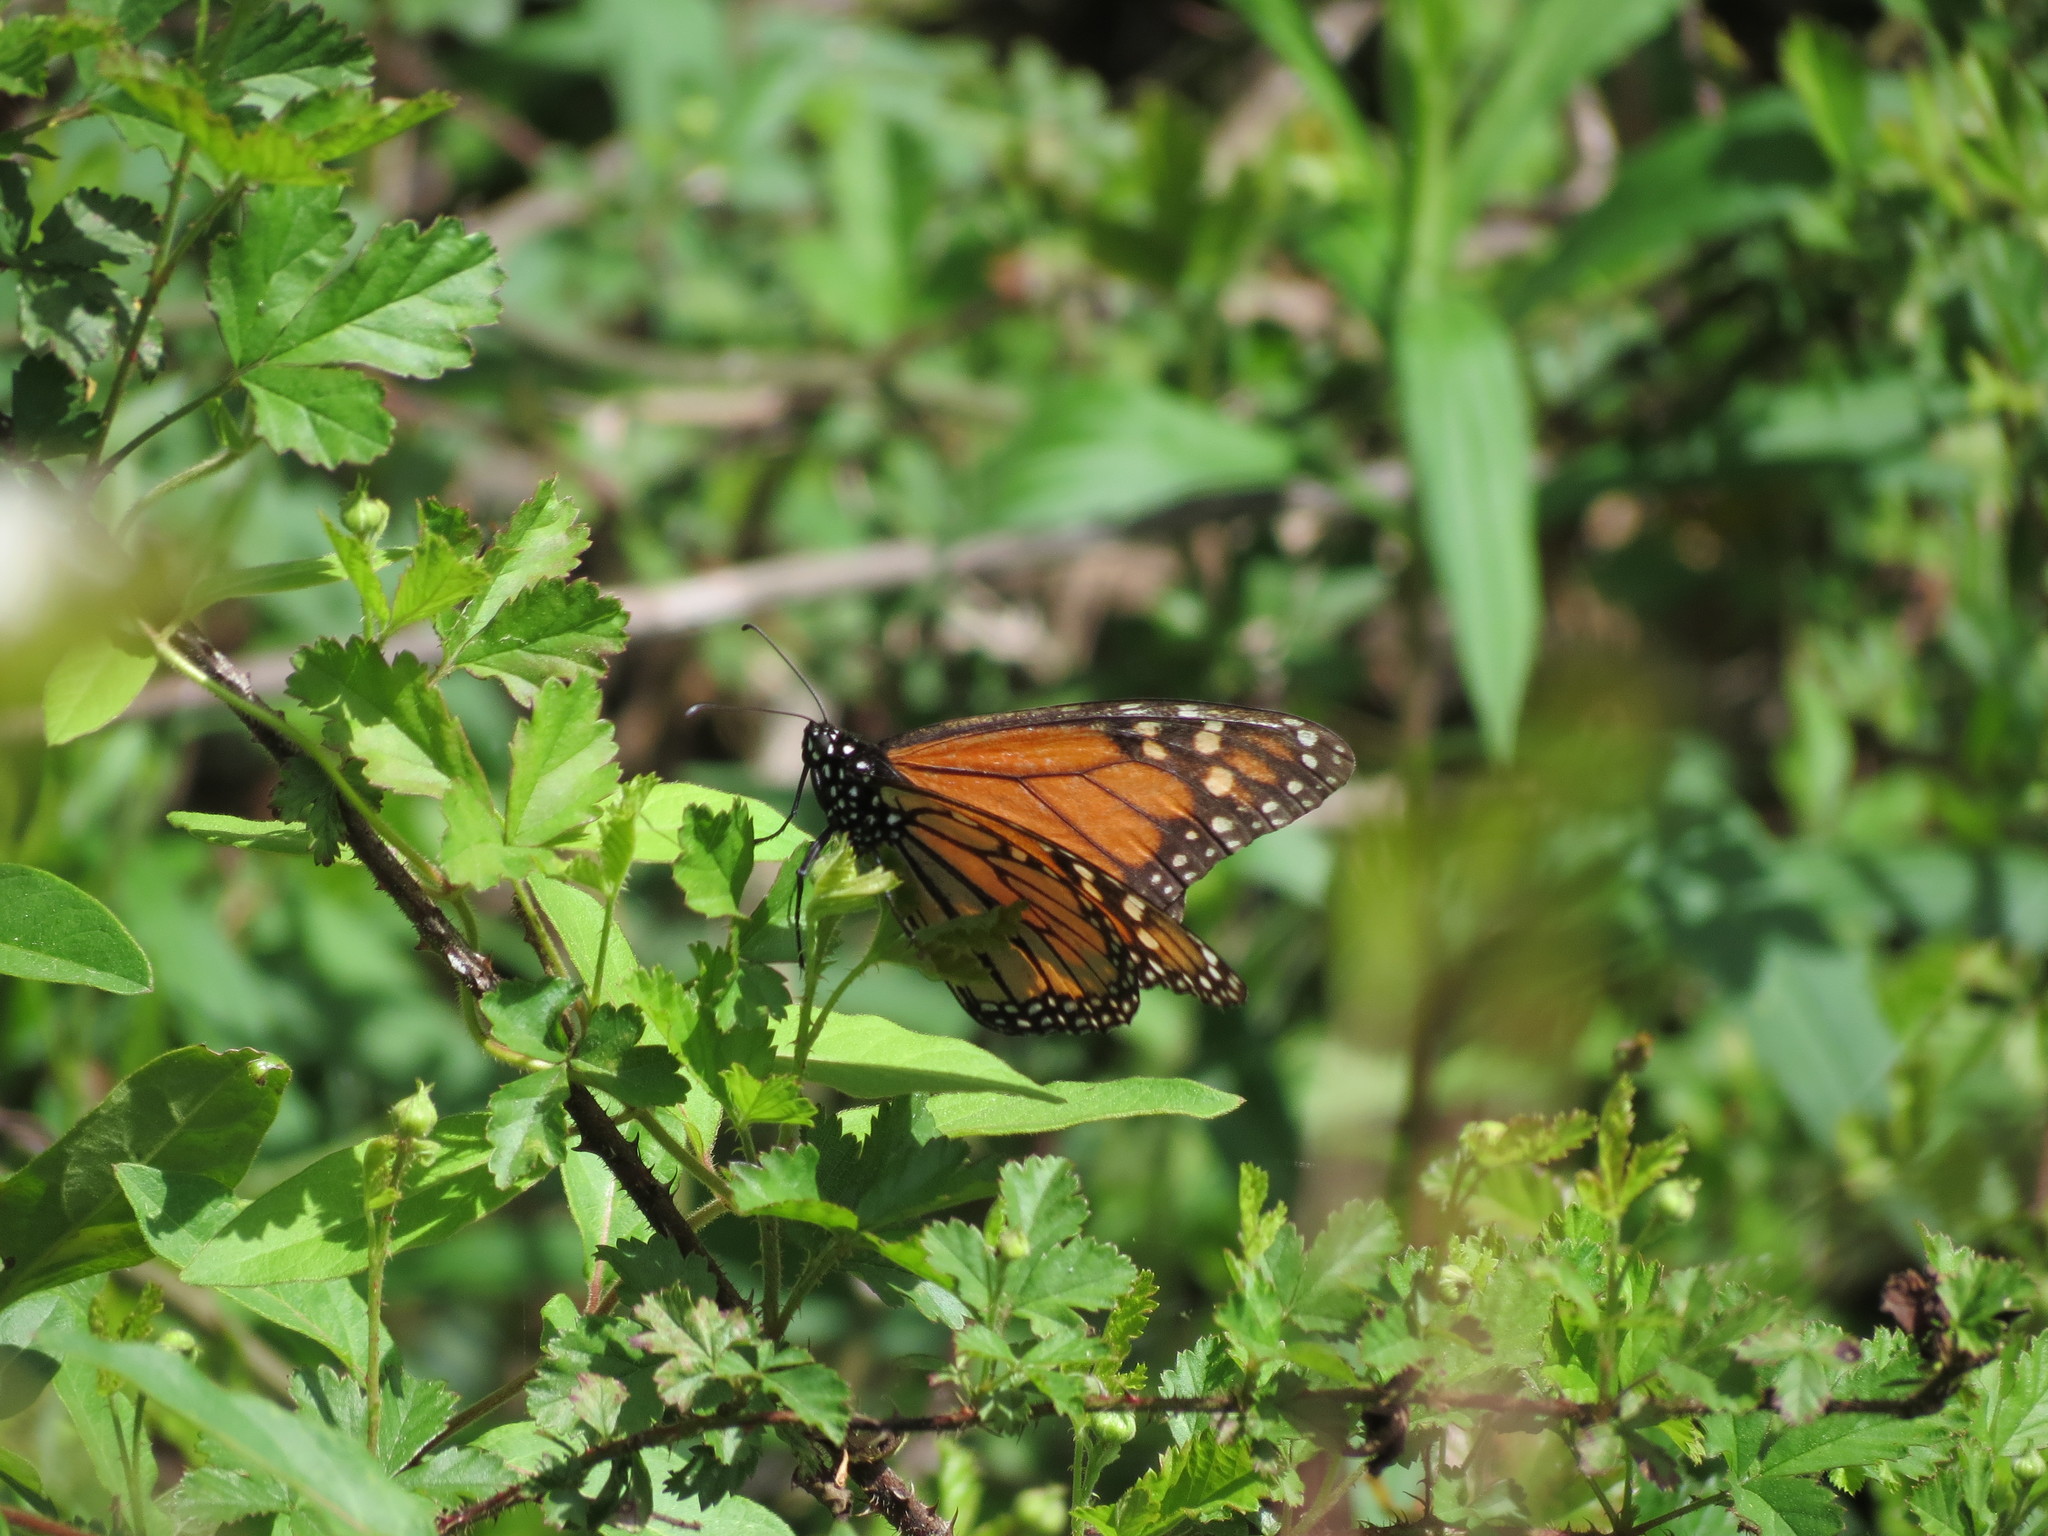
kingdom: Animalia
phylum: Arthropoda
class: Insecta
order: Lepidoptera
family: Nymphalidae
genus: Danaus
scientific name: Danaus plexippus
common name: Monarch
